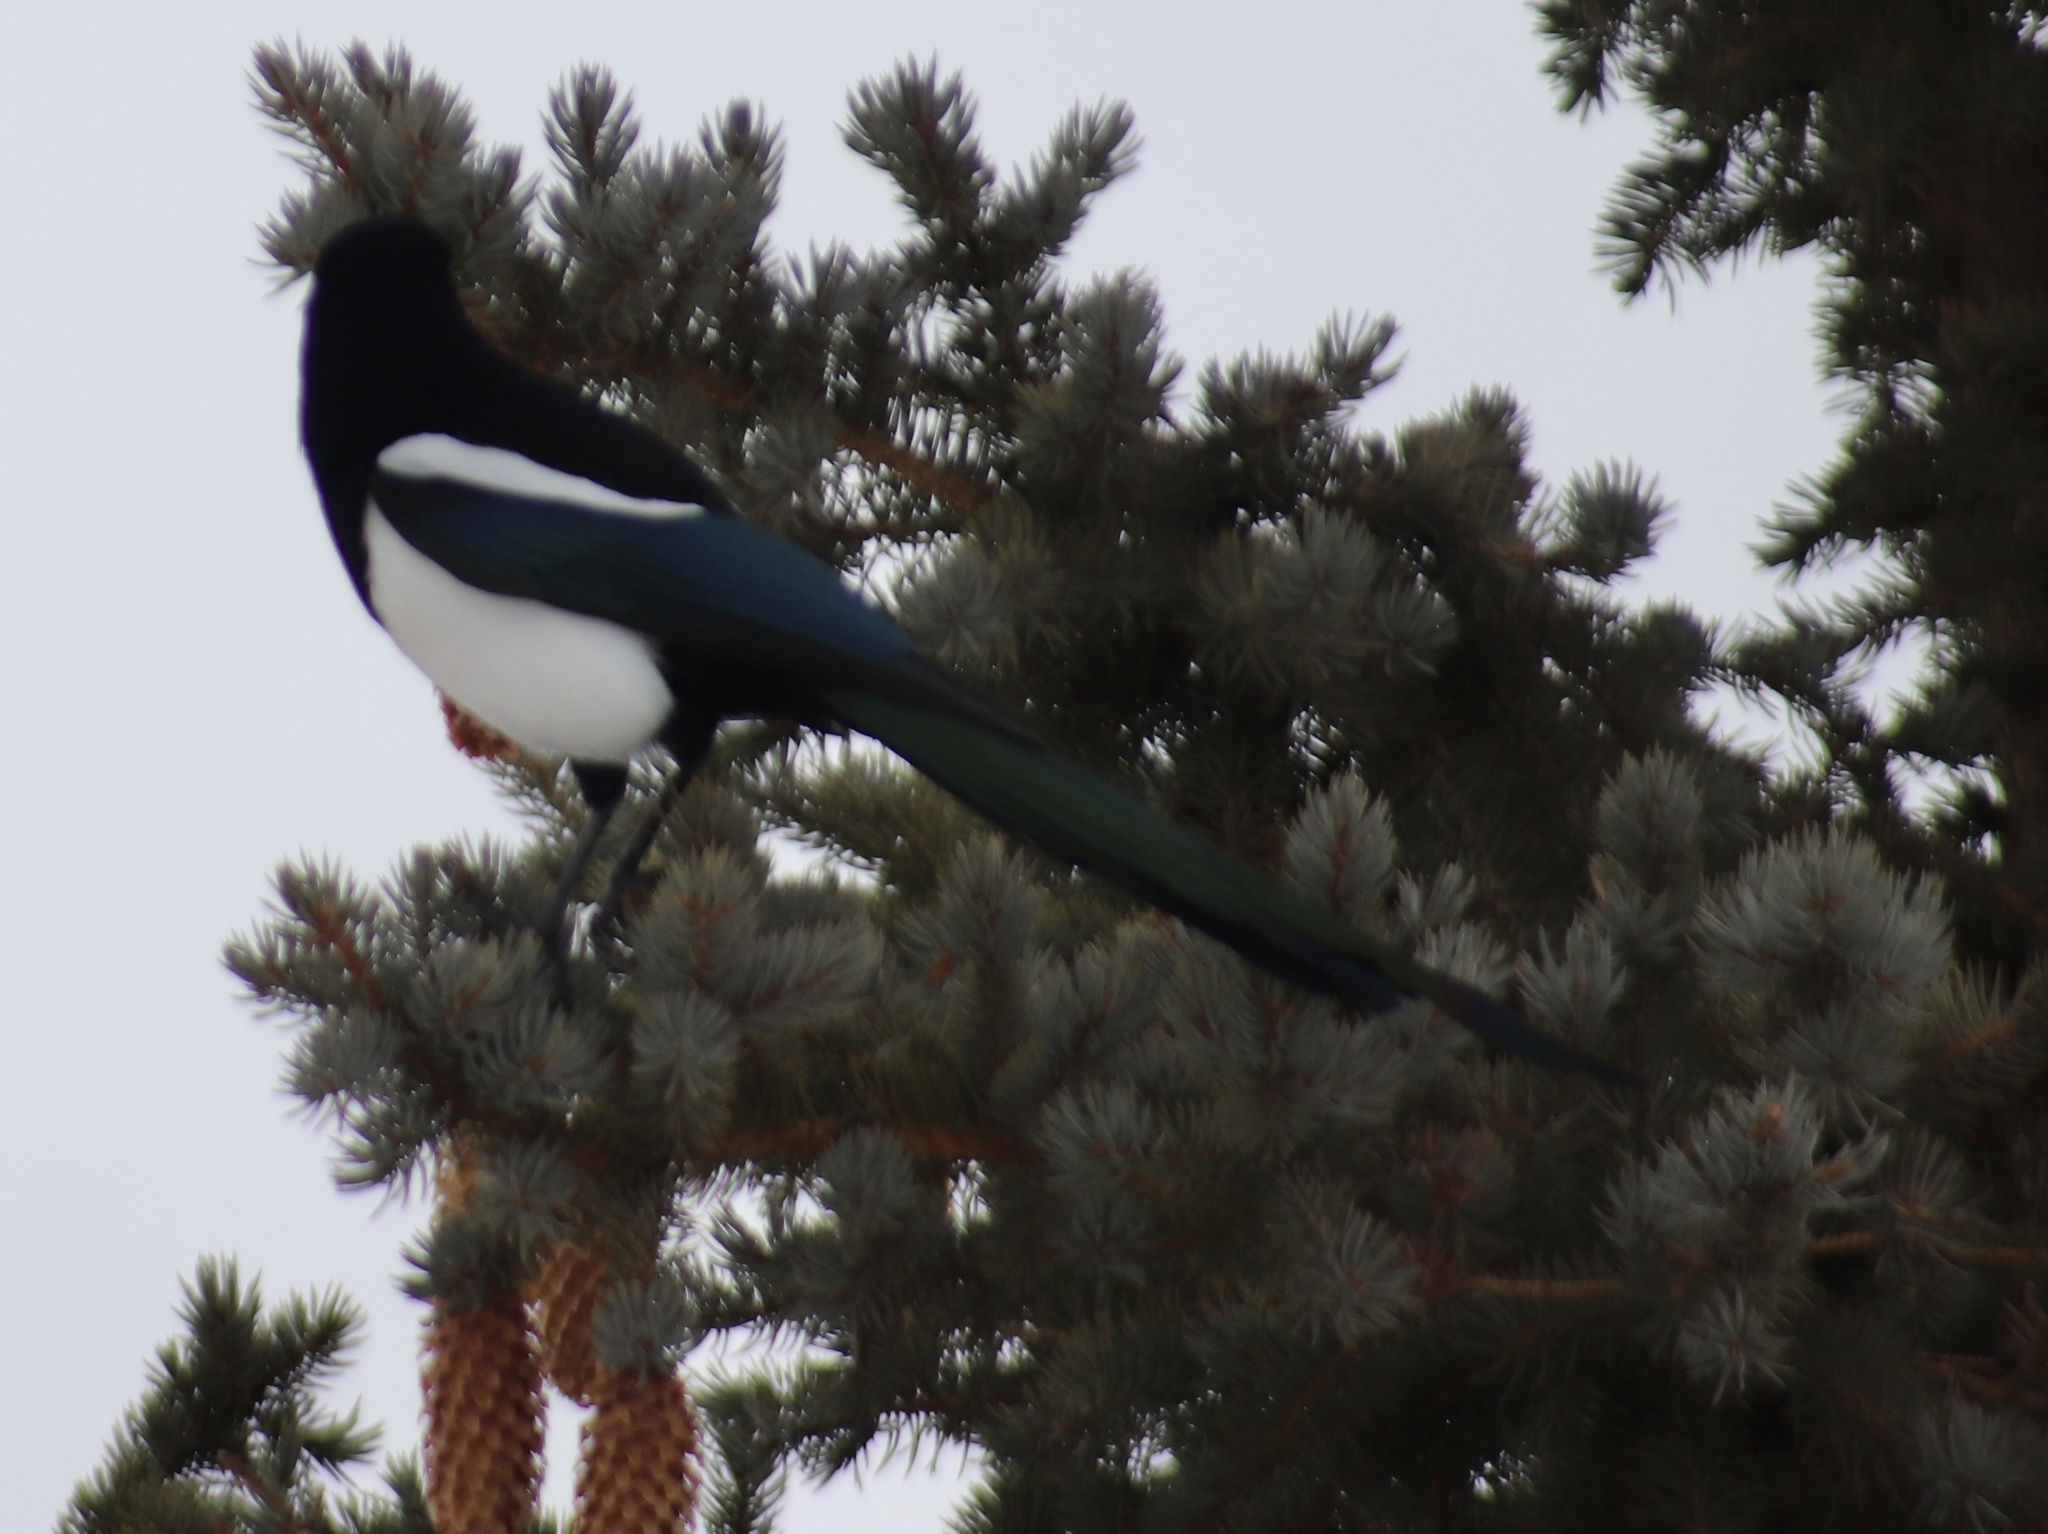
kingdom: Animalia
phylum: Chordata
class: Aves
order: Passeriformes
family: Corvidae
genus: Pica
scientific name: Pica hudsonia
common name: Black-billed magpie
